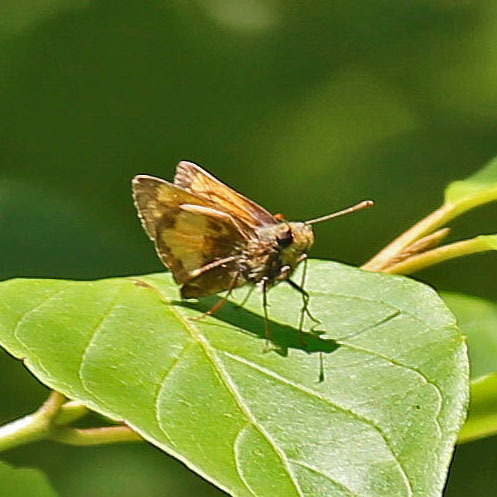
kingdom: Animalia
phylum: Arthropoda
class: Insecta
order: Lepidoptera
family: Hesperiidae
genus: Lon
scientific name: Lon hobomok
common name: Hobomok skipper
